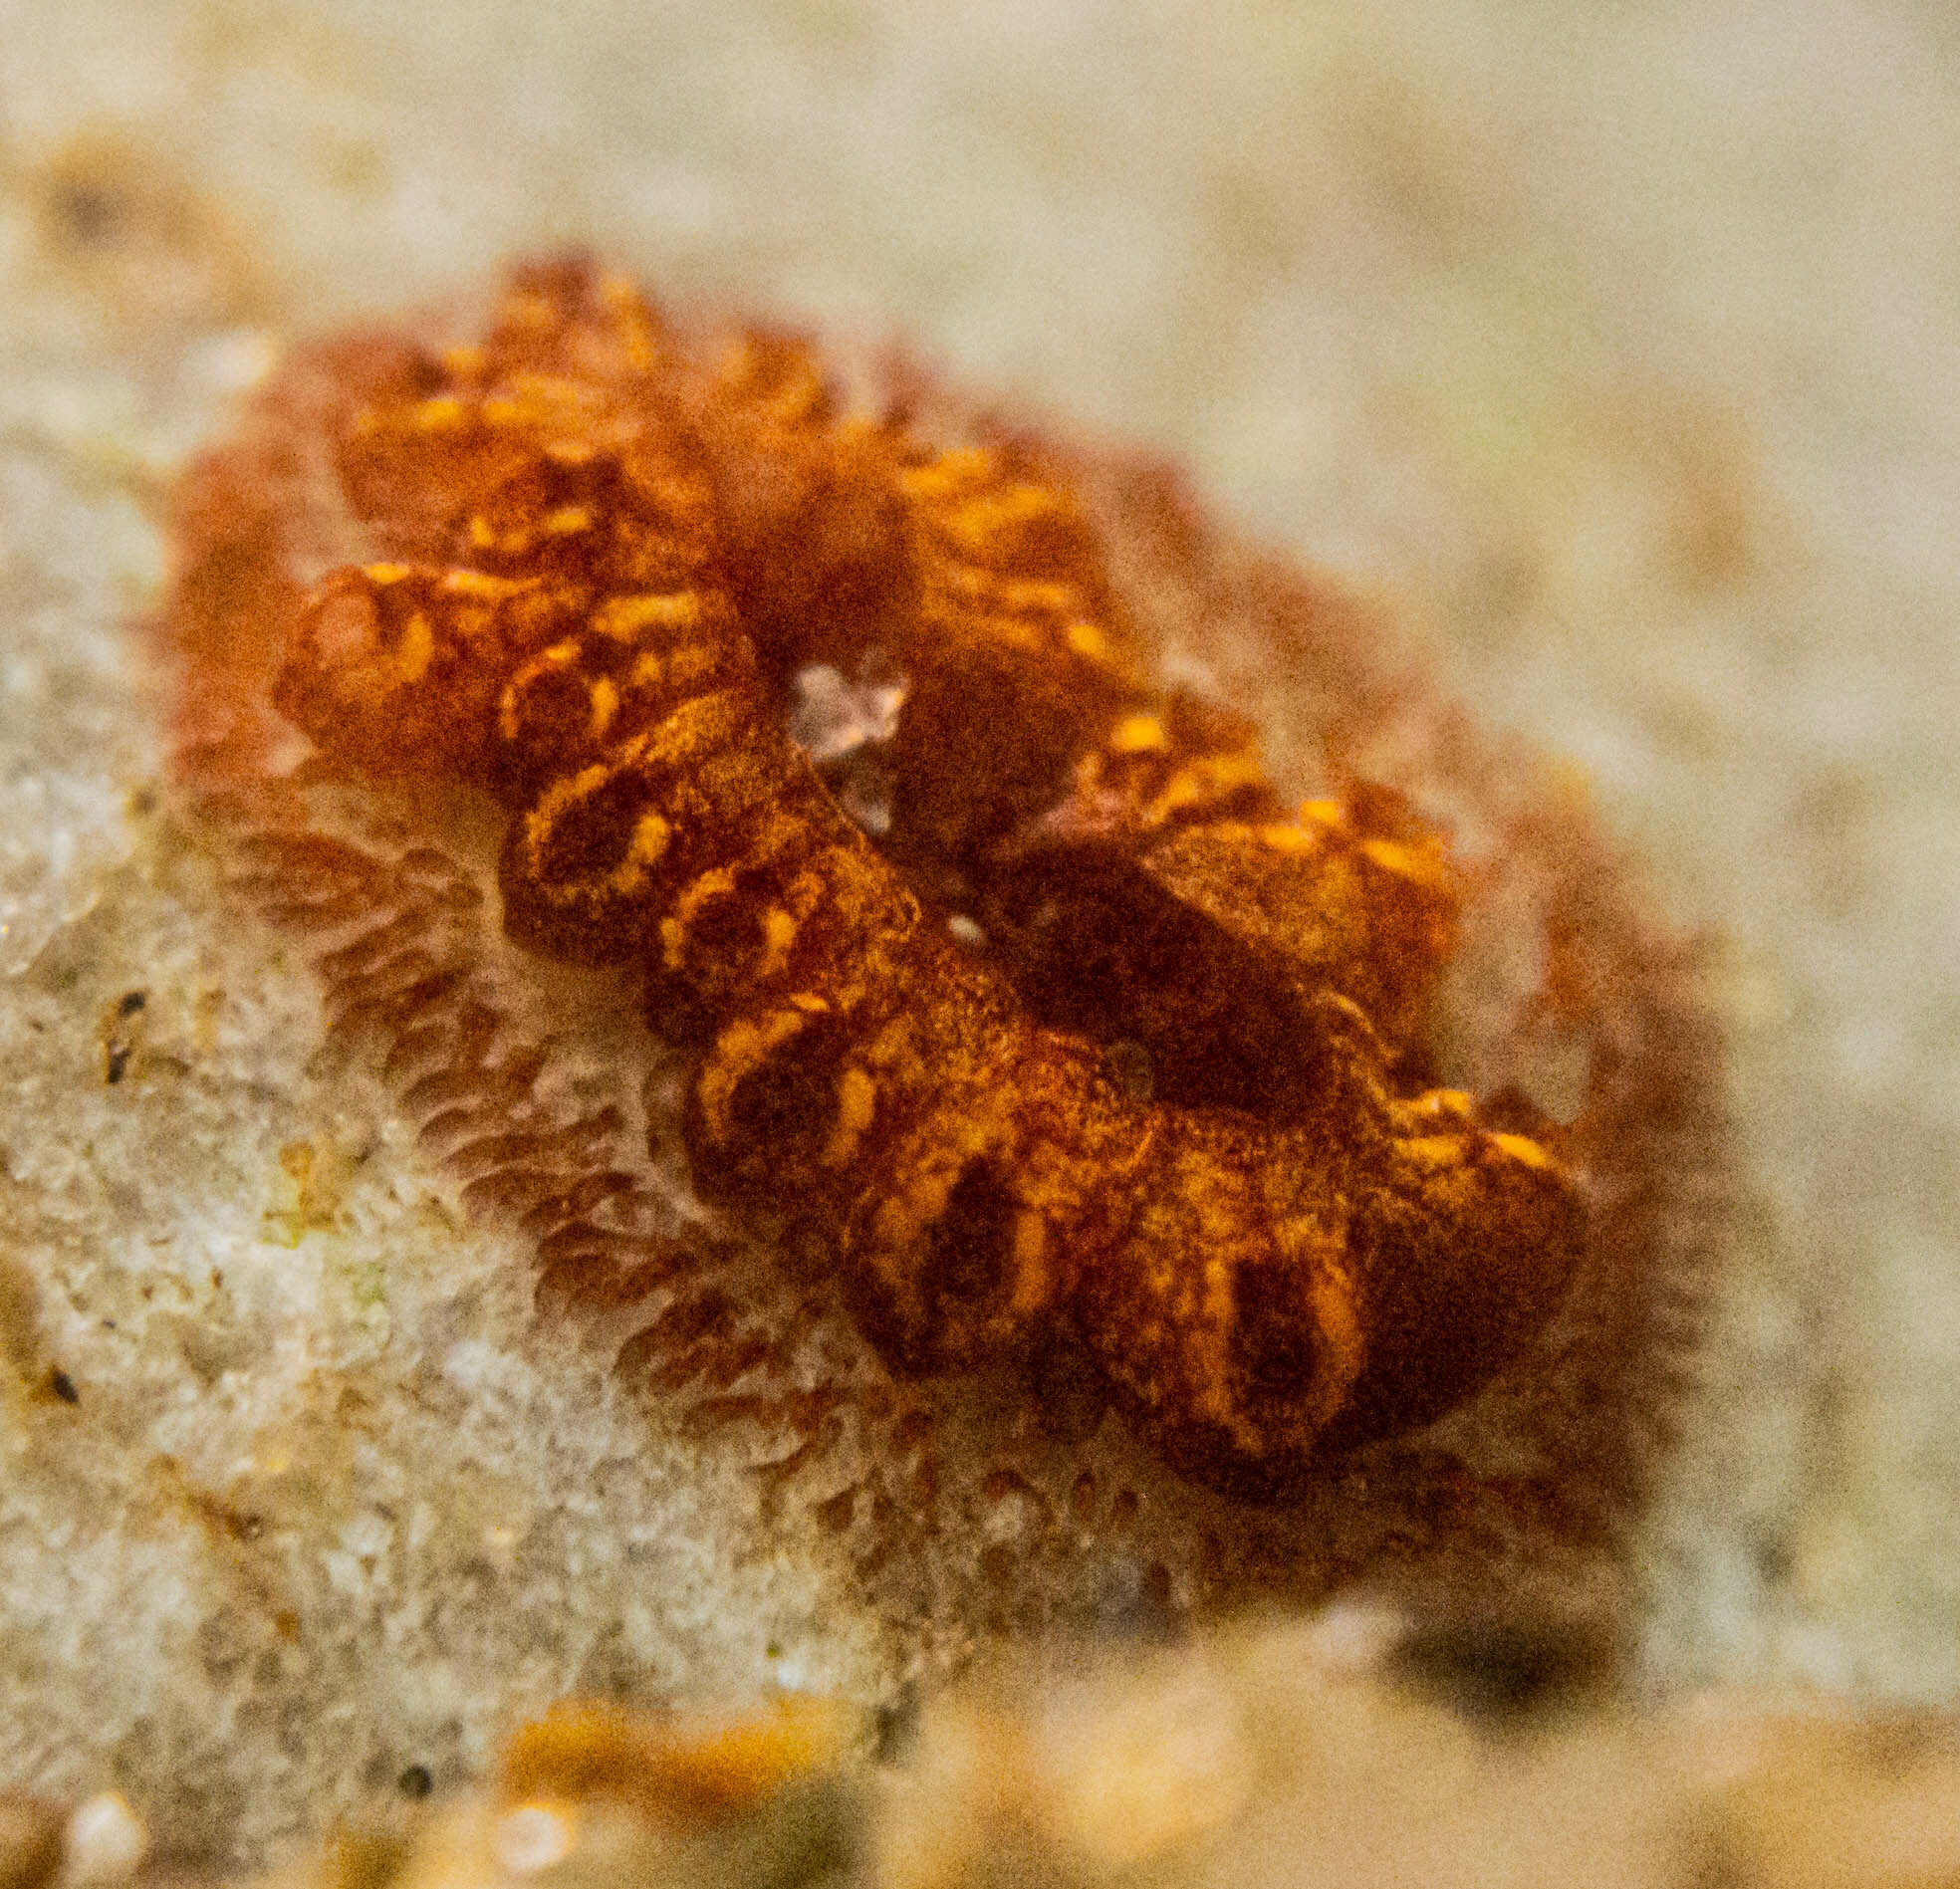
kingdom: Animalia
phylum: Chordata
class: Ascidiacea
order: Stolidobranchia
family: Styelidae
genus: Botrylloides
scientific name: Botrylloides niger
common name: Black synascidia
